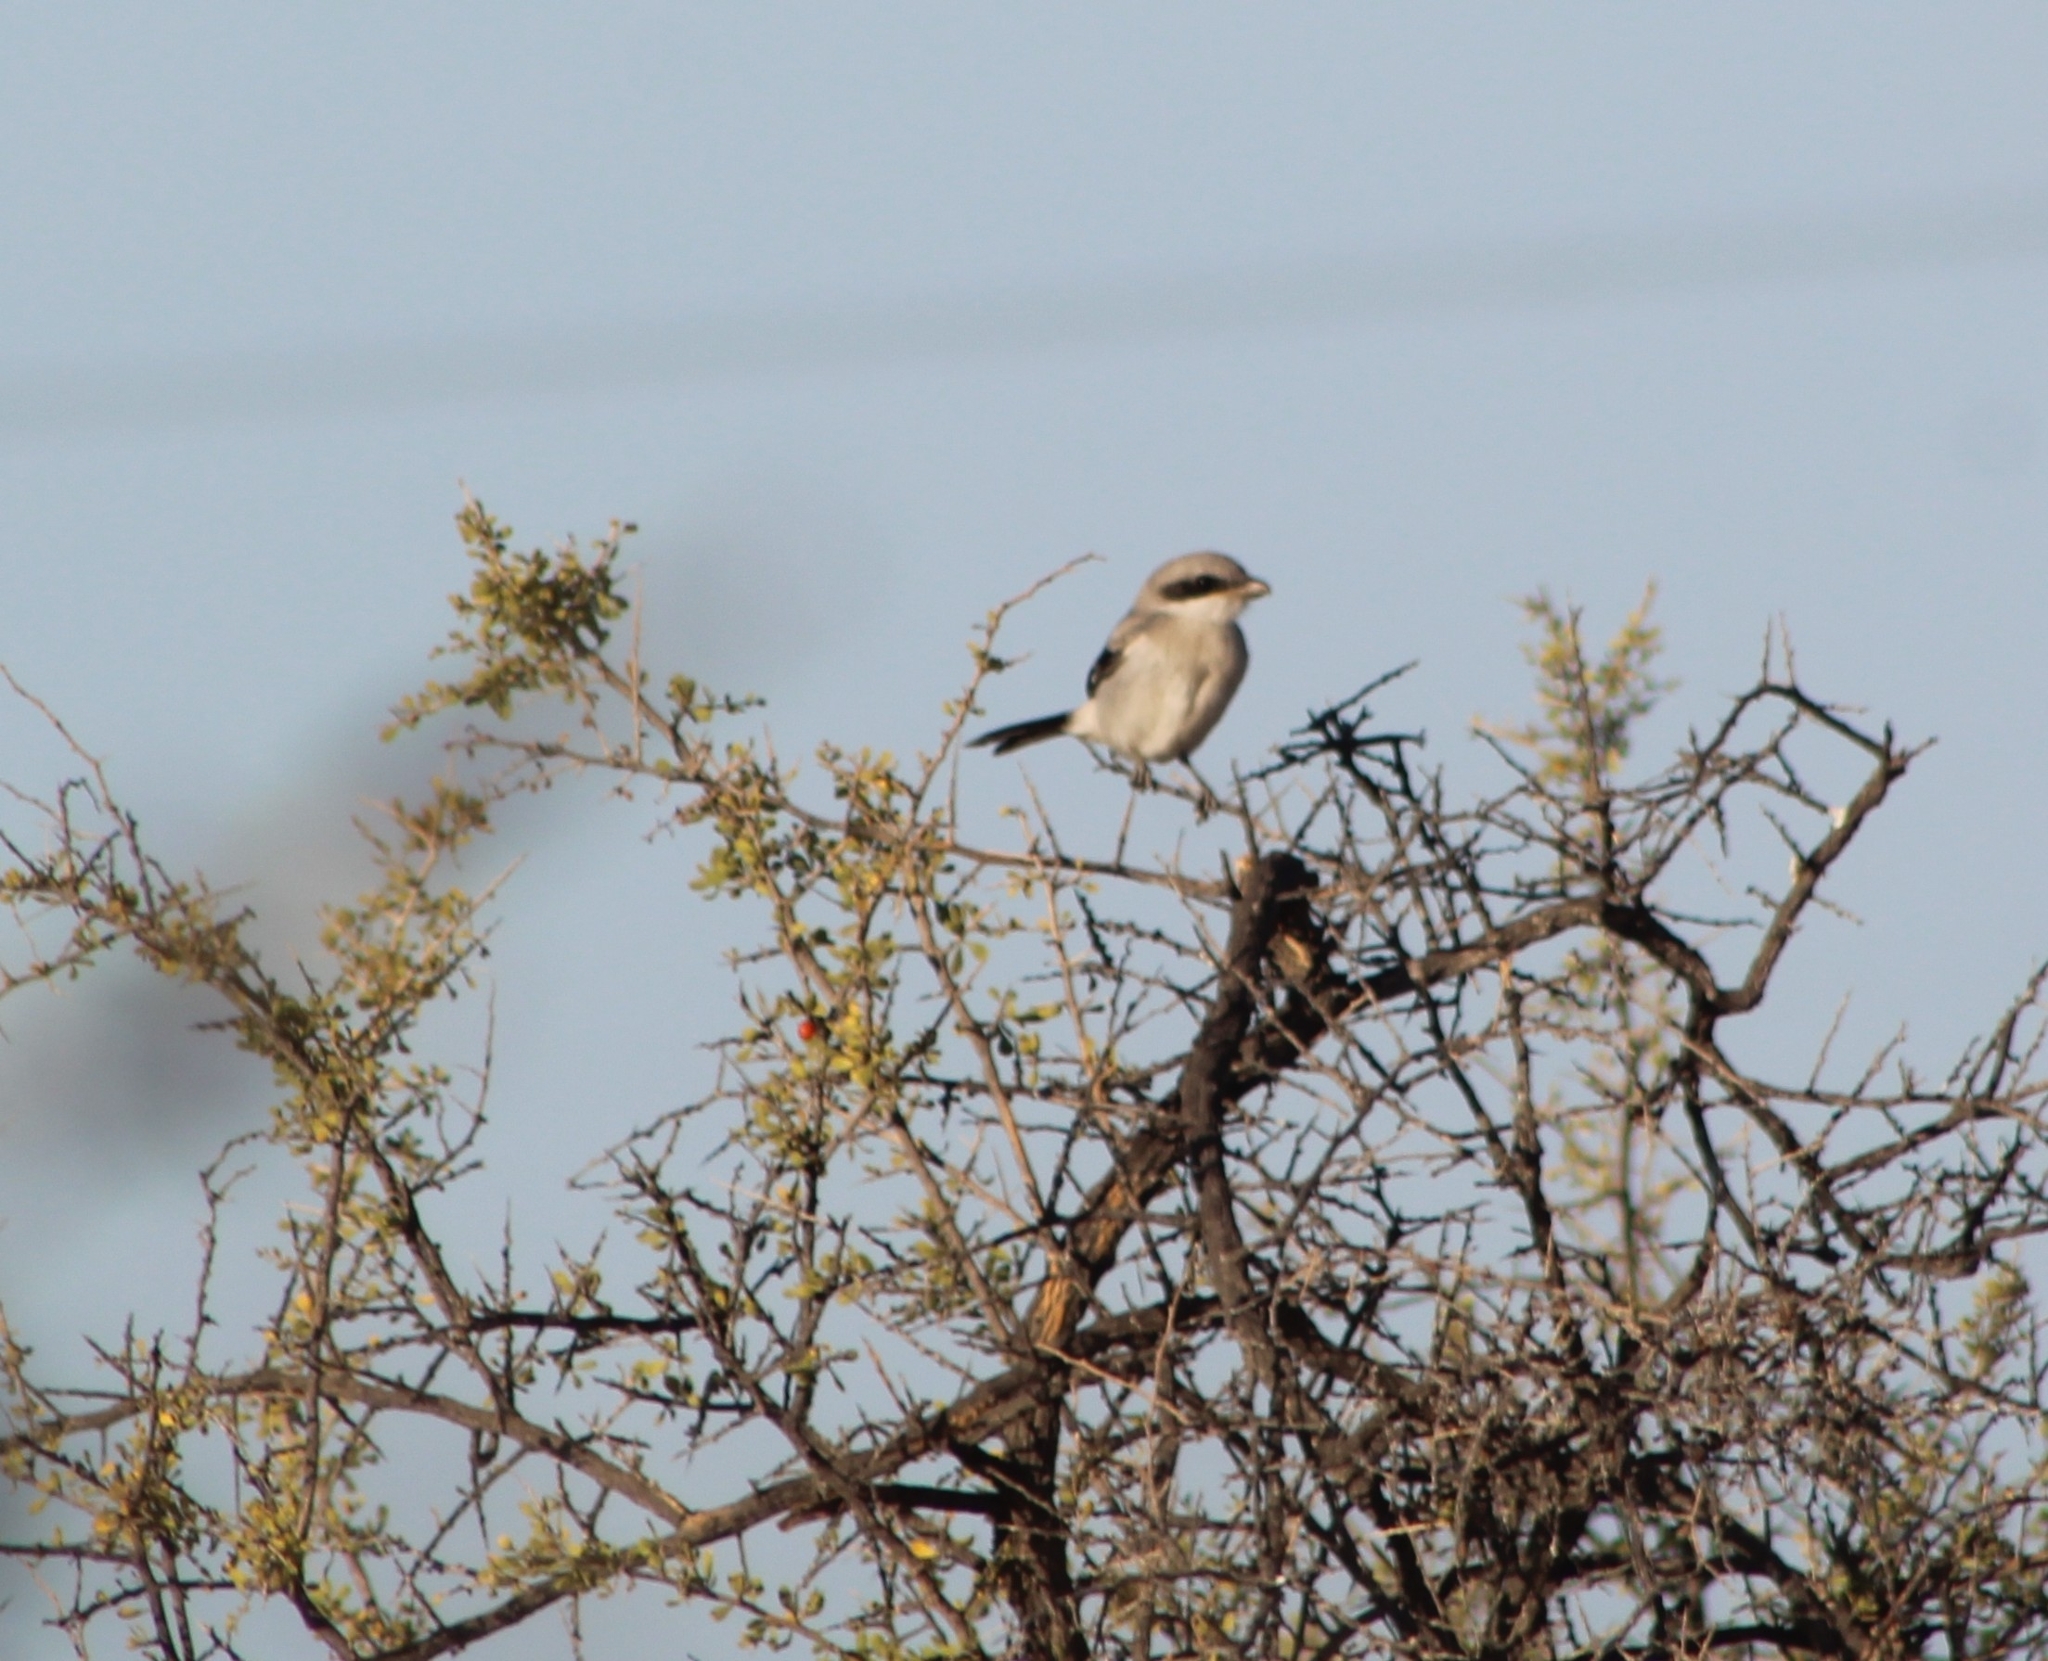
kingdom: Animalia
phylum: Chordata
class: Aves
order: Passeriformes
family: Laniidae
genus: Lanius
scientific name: Lanius ludovicianus
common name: Loggerhead shrike
